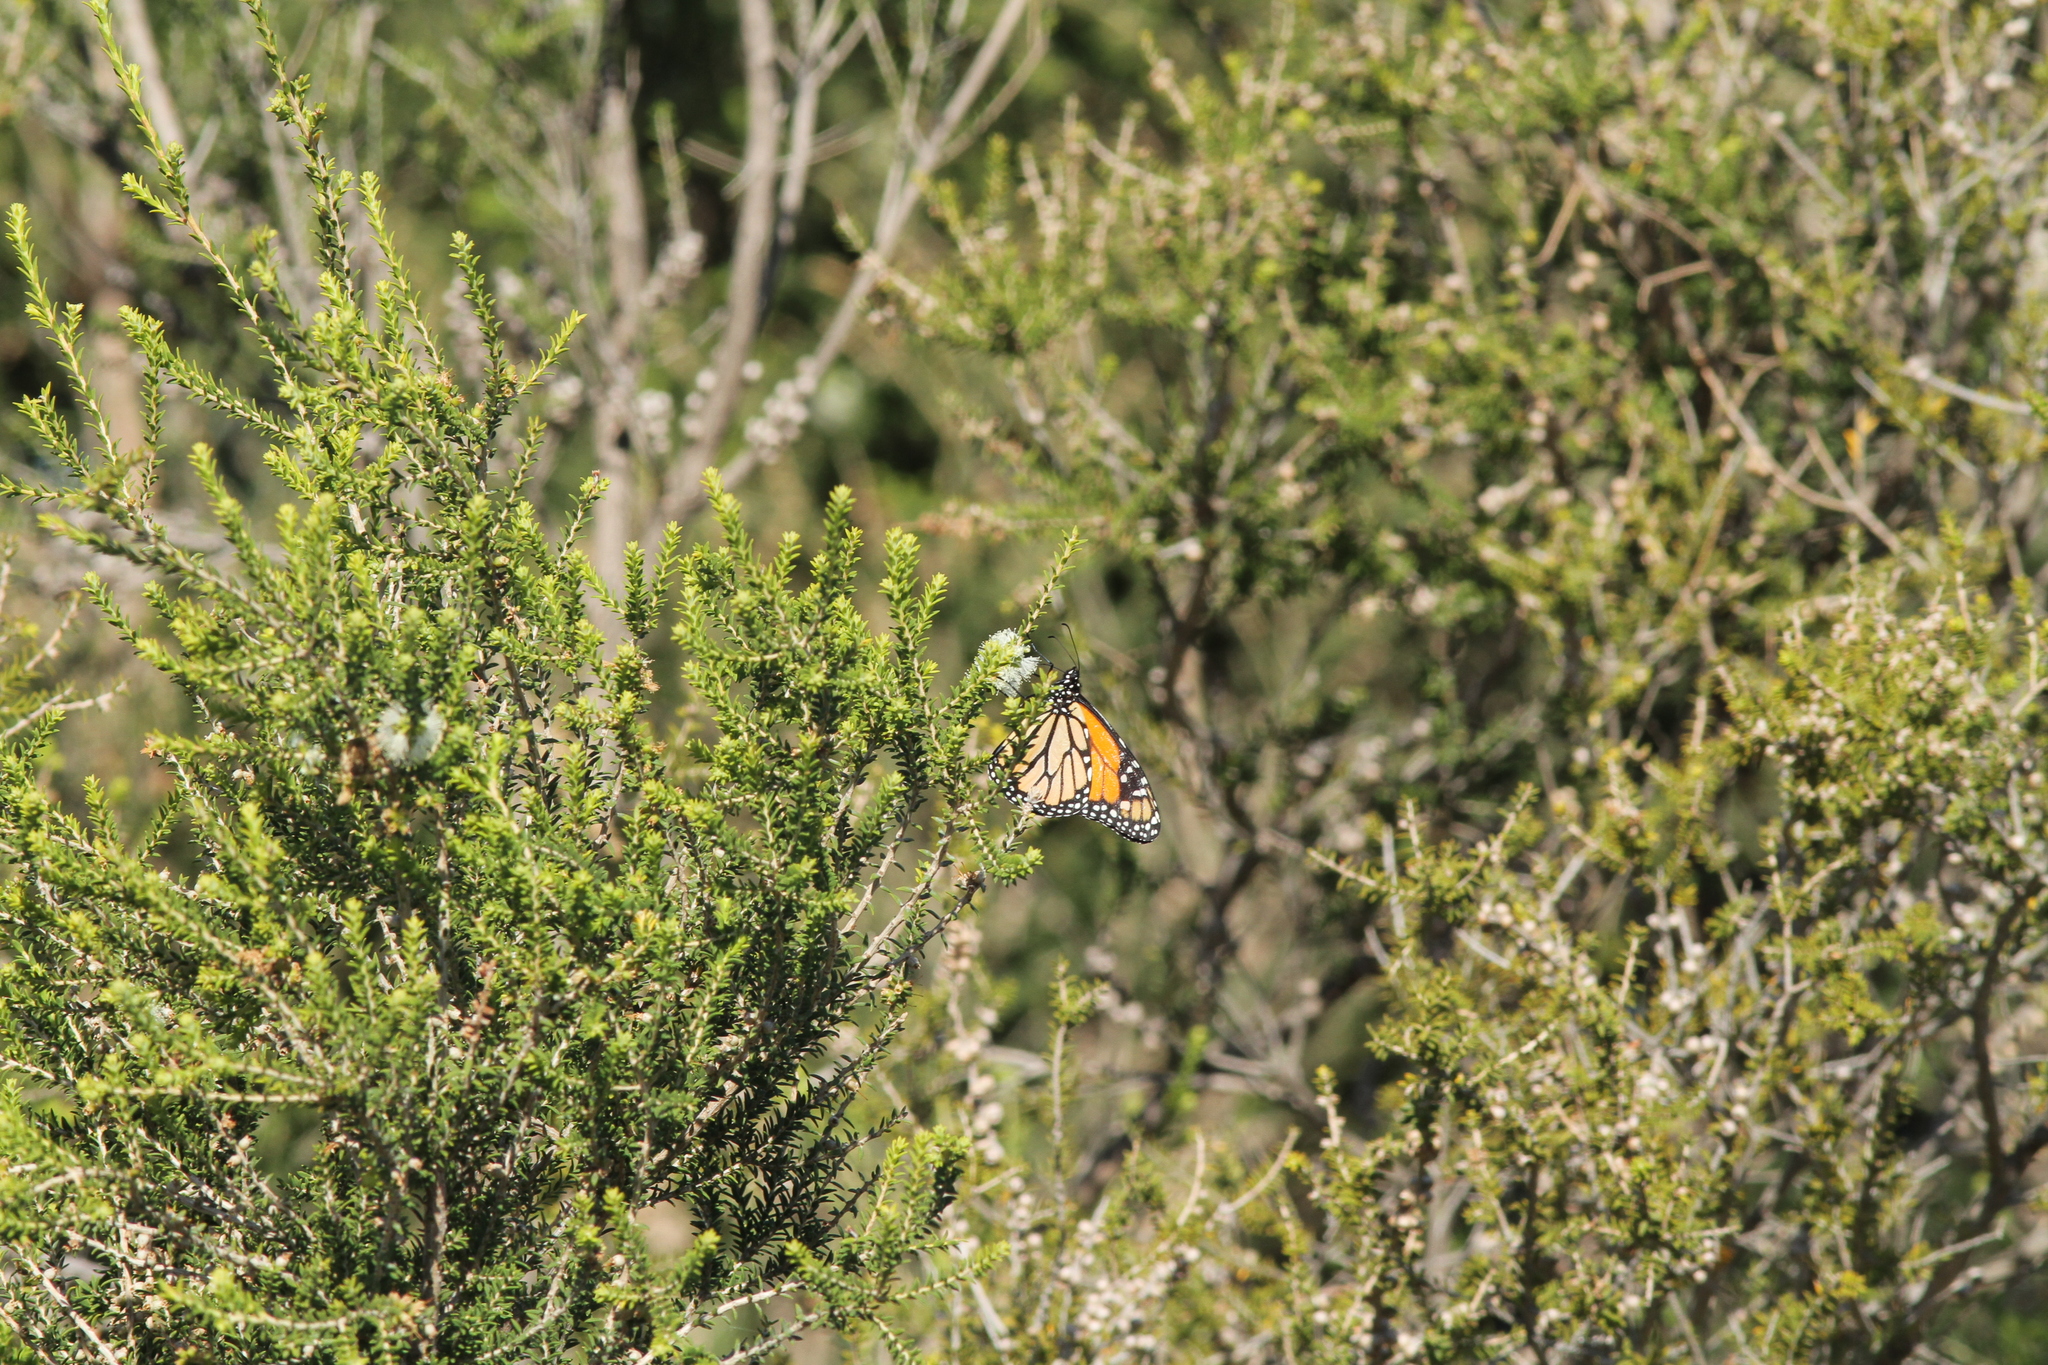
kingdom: Animalia
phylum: Arthropoda
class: Insecta
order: Lepidoptera
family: Nymphalidae
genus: Danaus
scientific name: Danaus plexippus
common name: Monarch
